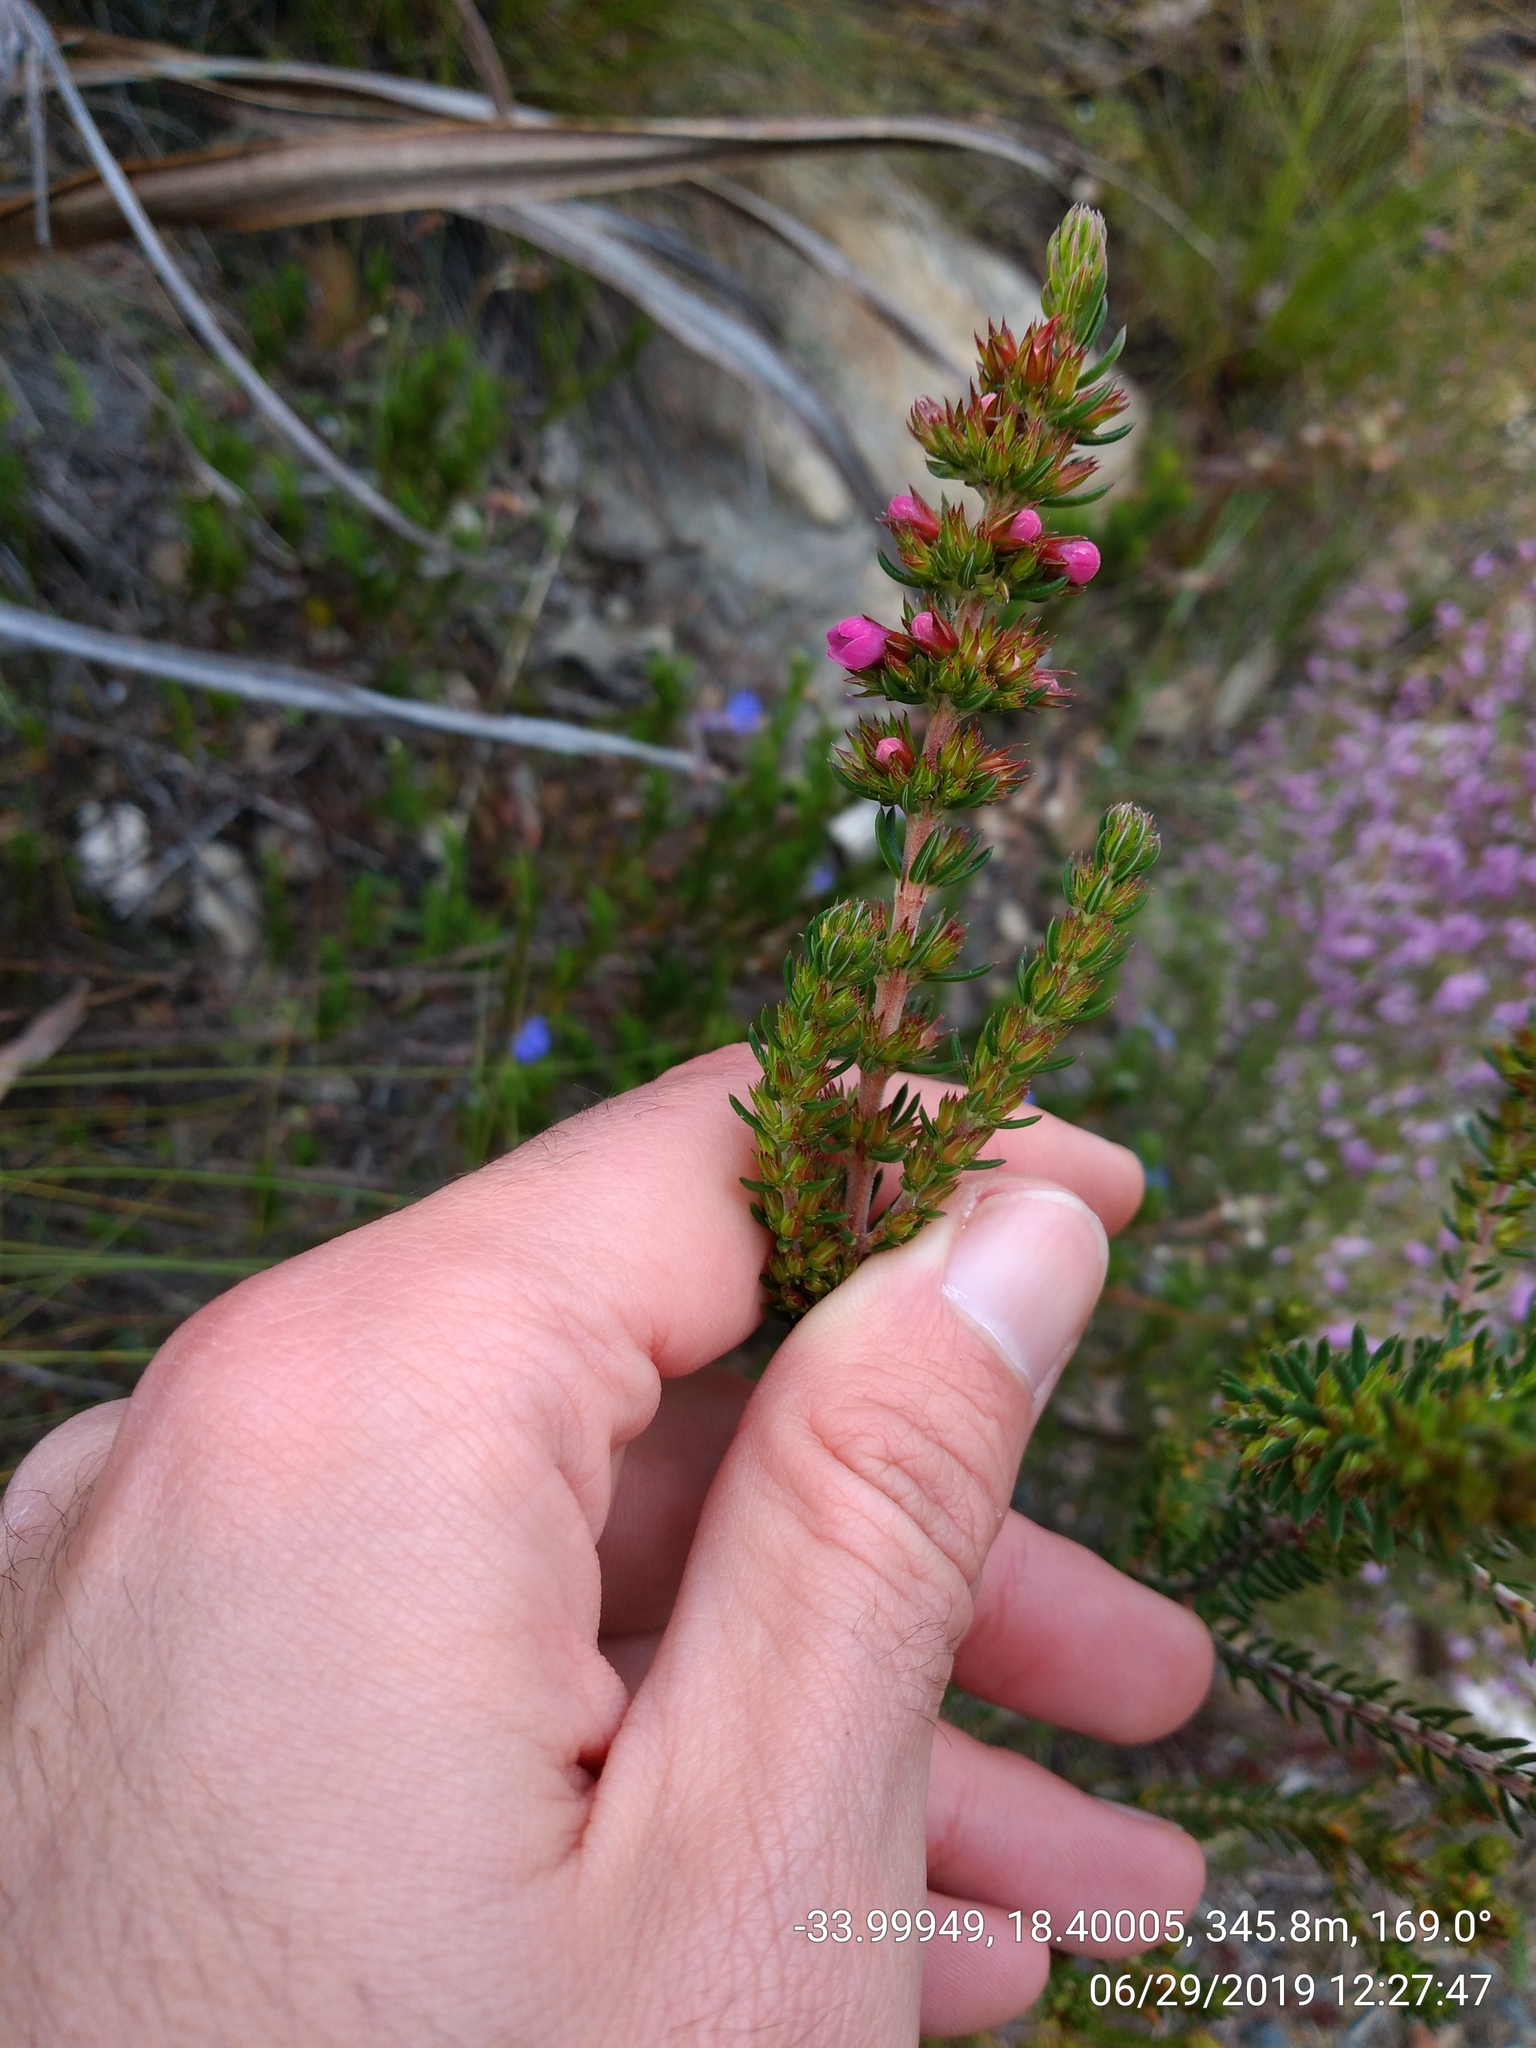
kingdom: Plantae
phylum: Tracheophyta
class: Magnoliopsida
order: Ericales
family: Ericaceae
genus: Erica
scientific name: Erica abietina
